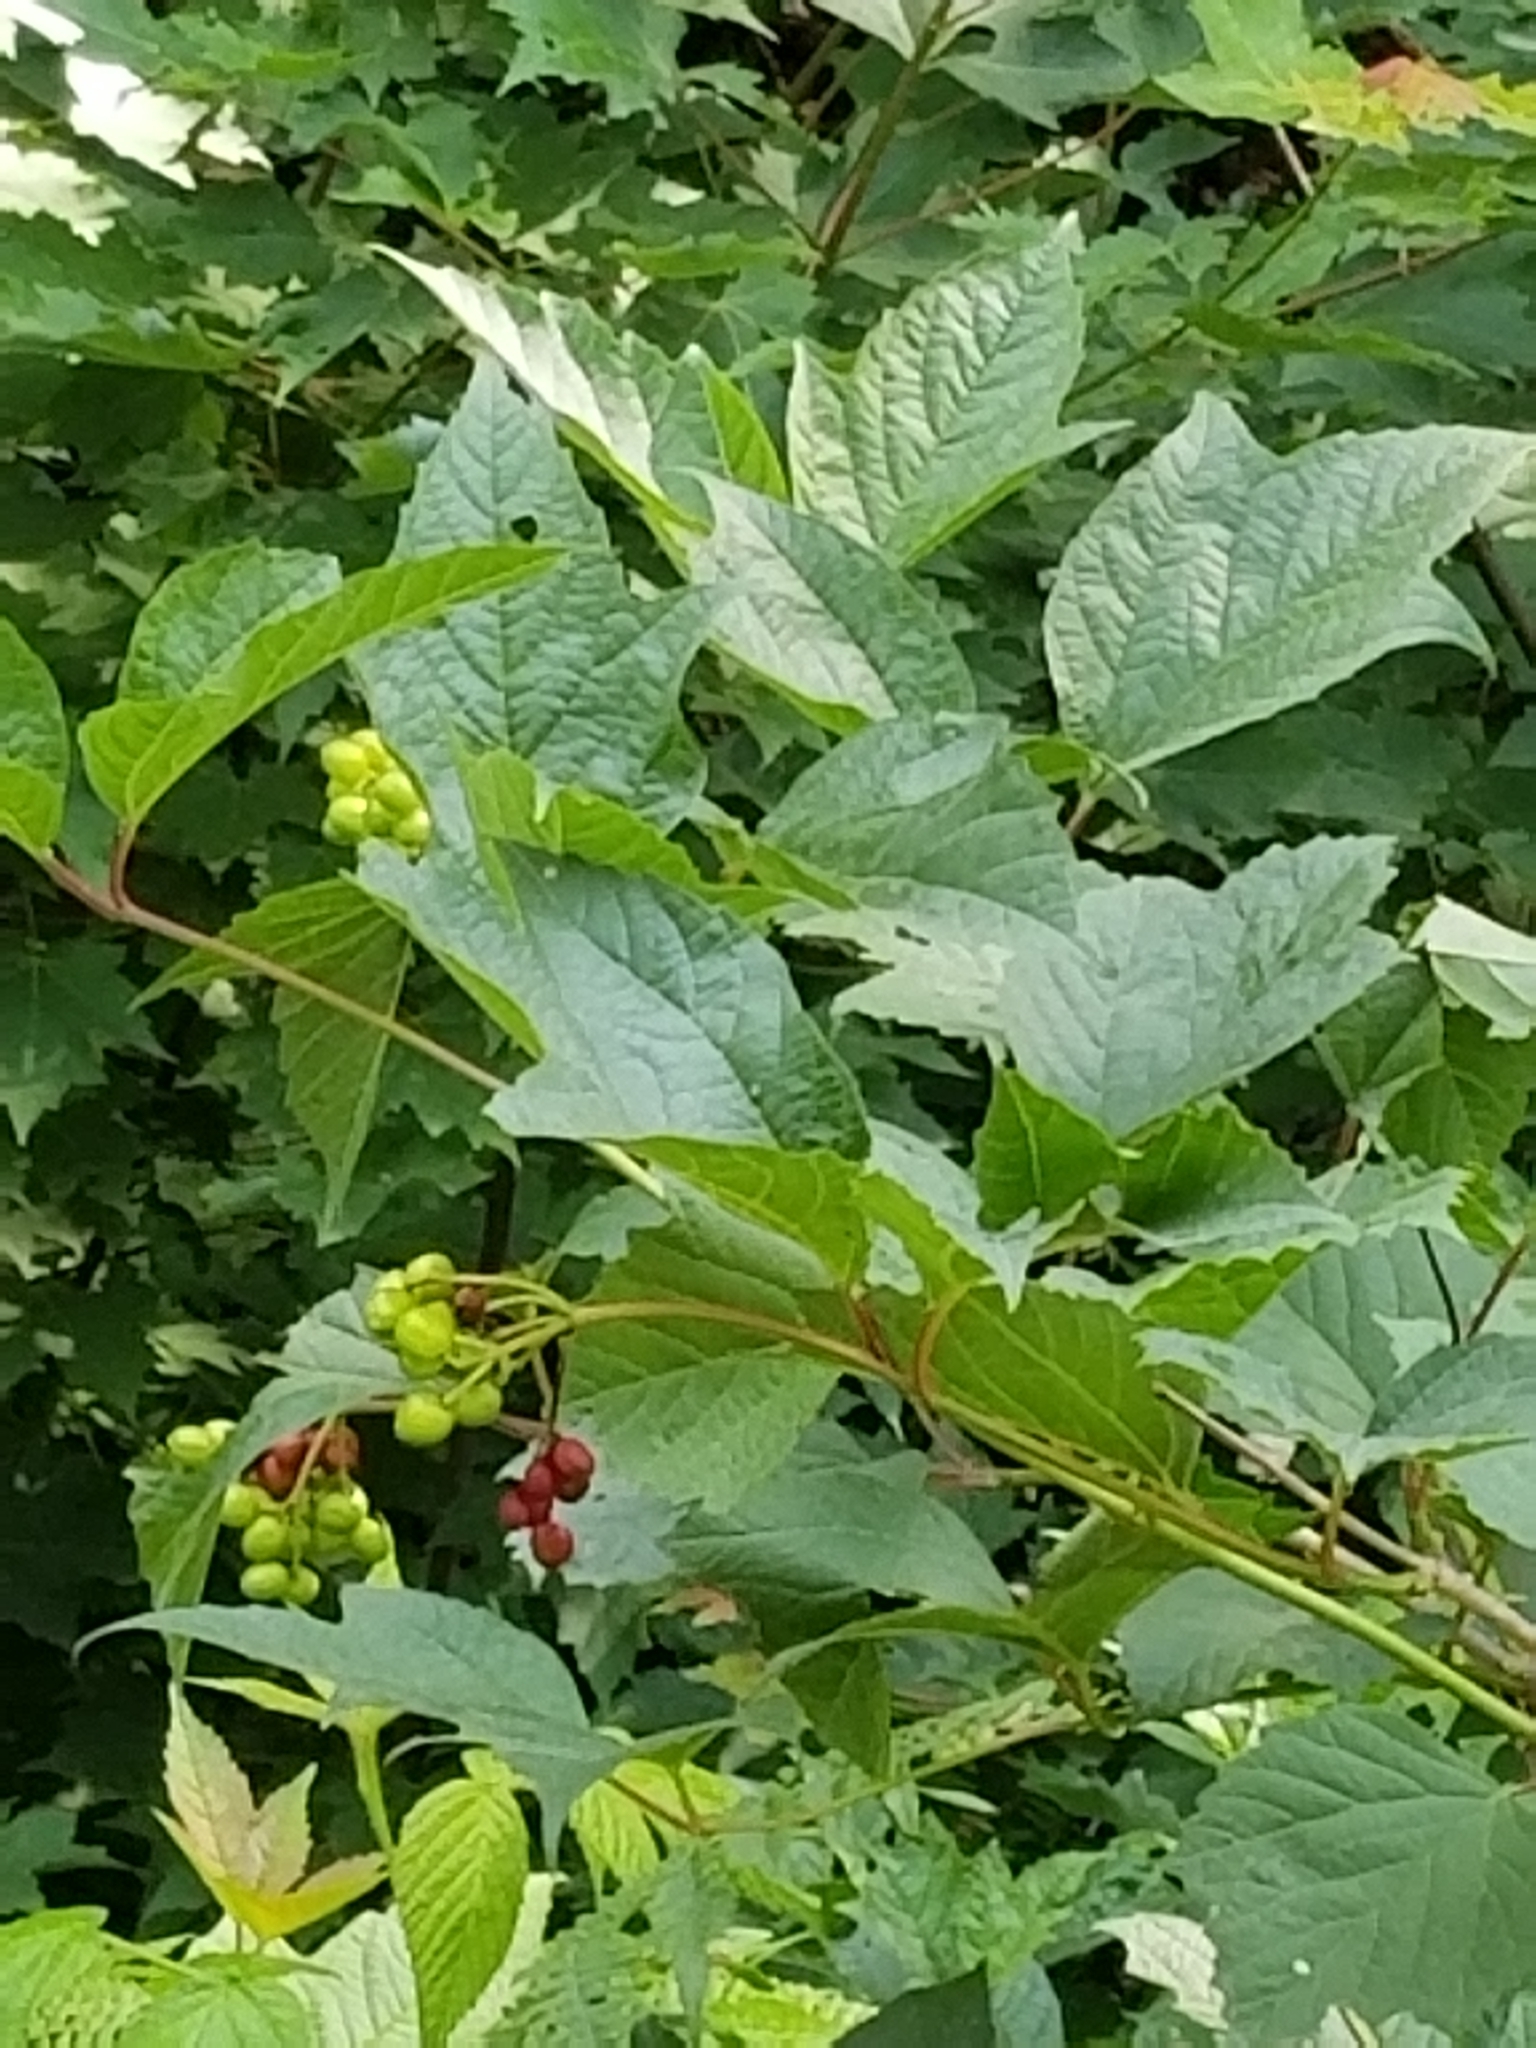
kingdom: Plantae
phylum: Tracheophyta
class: Magnoliopsida
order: Dipsacales
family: Viburnaceae
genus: Viburnum
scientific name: Viburnum opulus
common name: Guelder-rose
